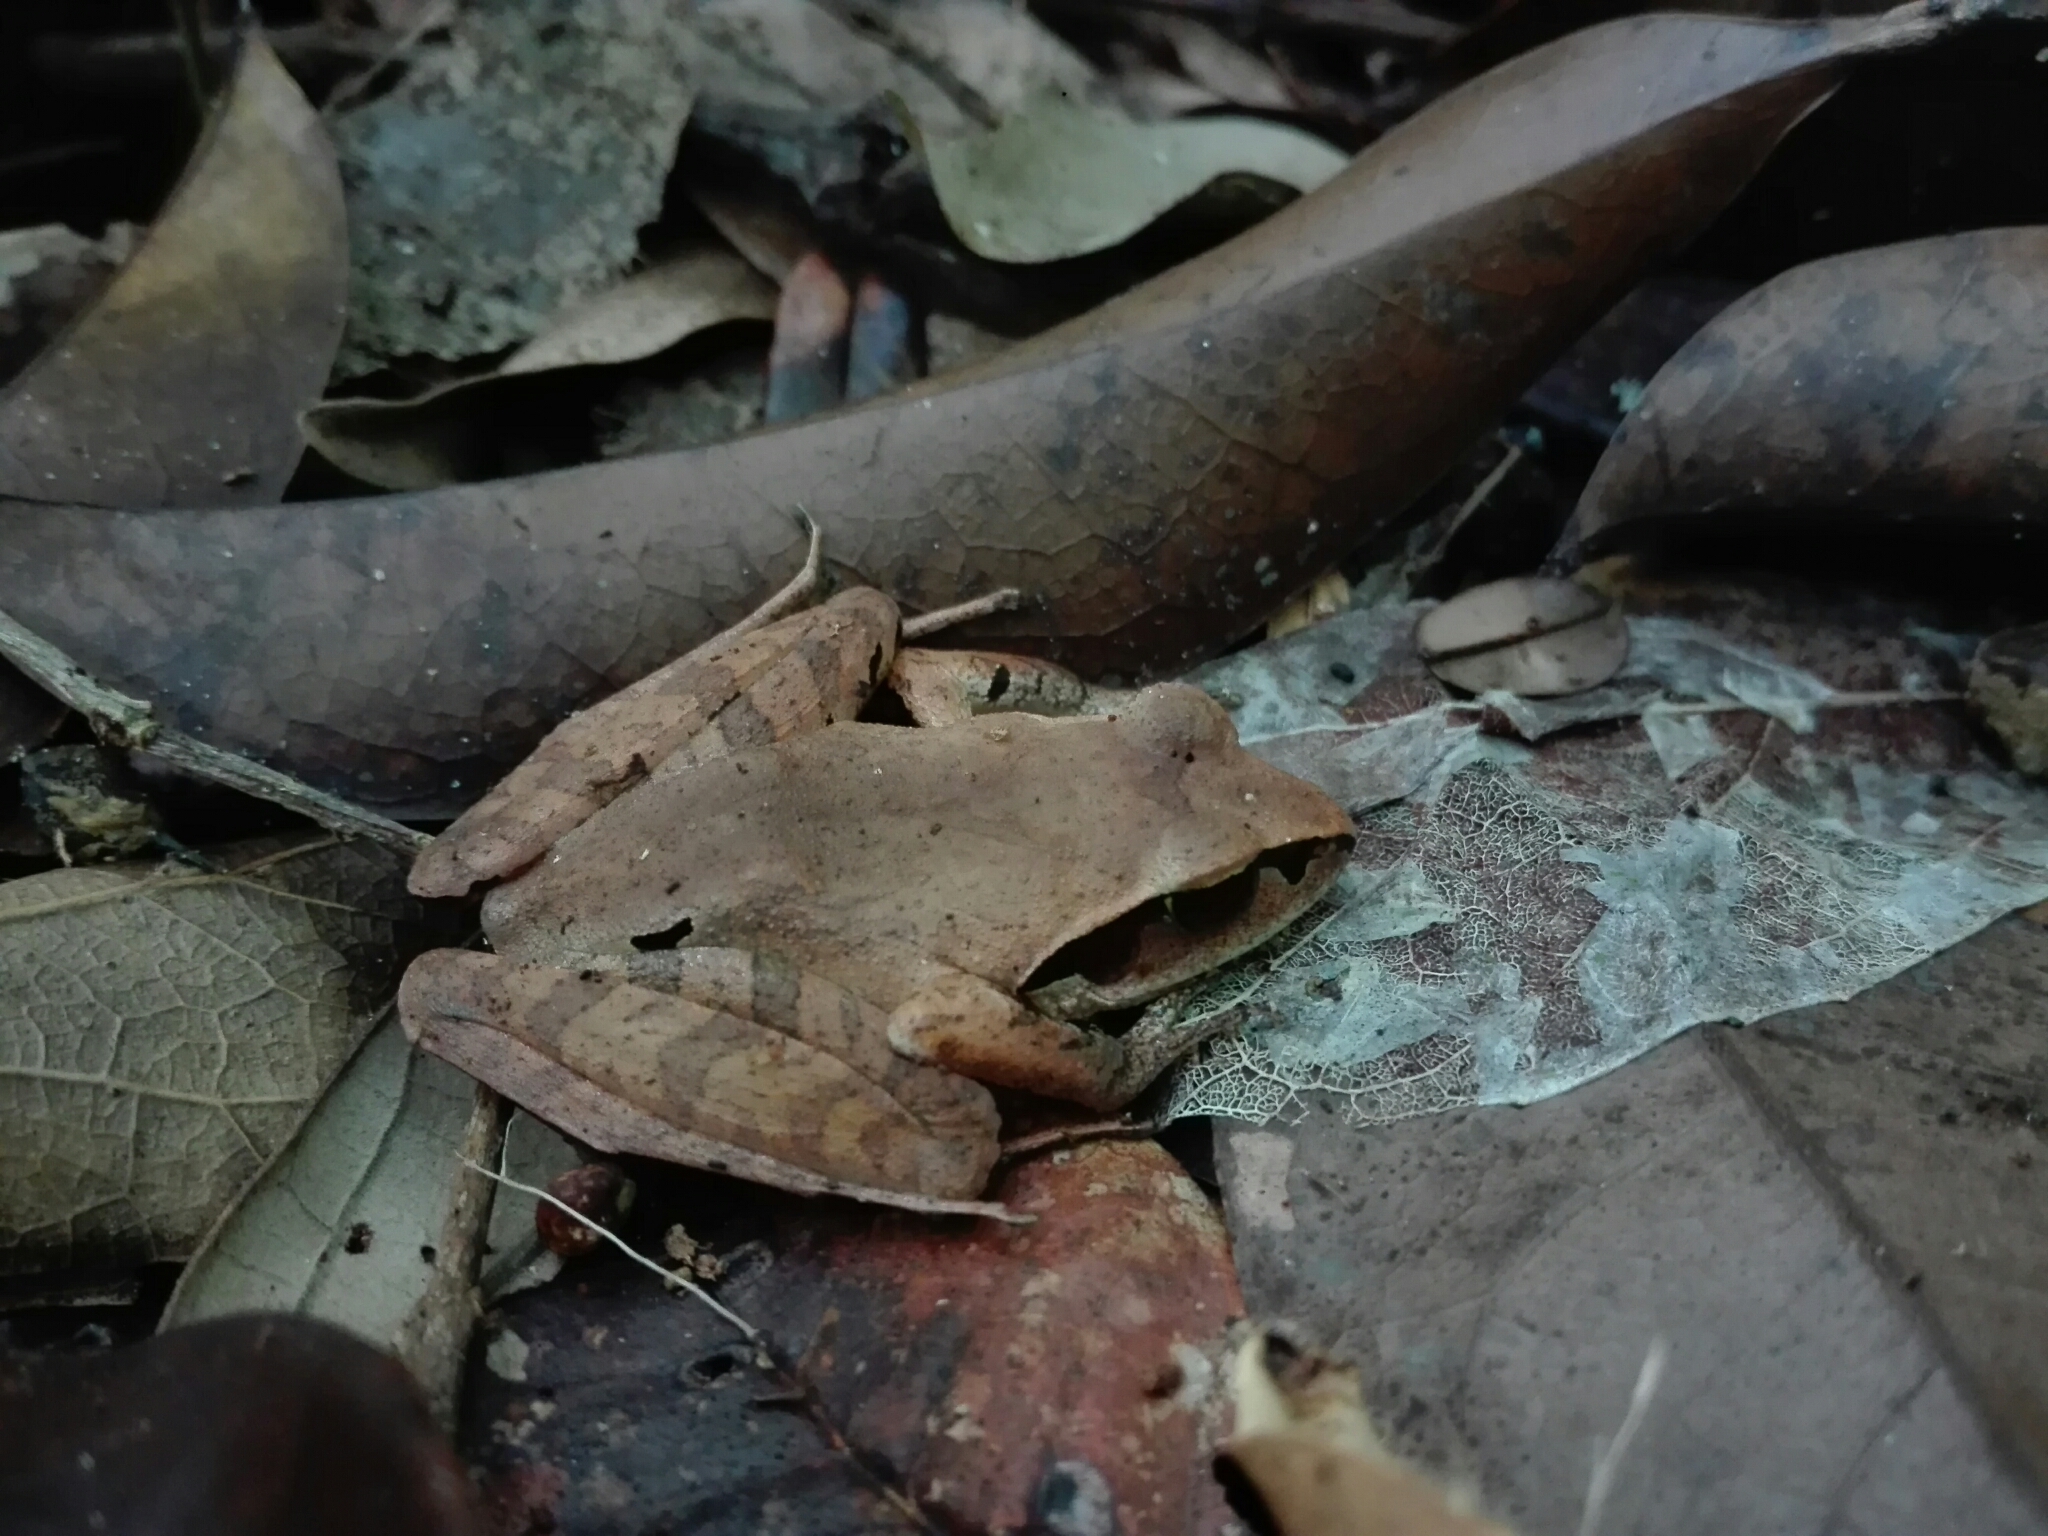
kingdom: Animalia
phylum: Chordata
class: Amphibia
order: Anura
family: Mantellidae
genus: Aglyptodactylus
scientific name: Aglyptodactylus madagascariensis
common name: Madagascar jumping frog
